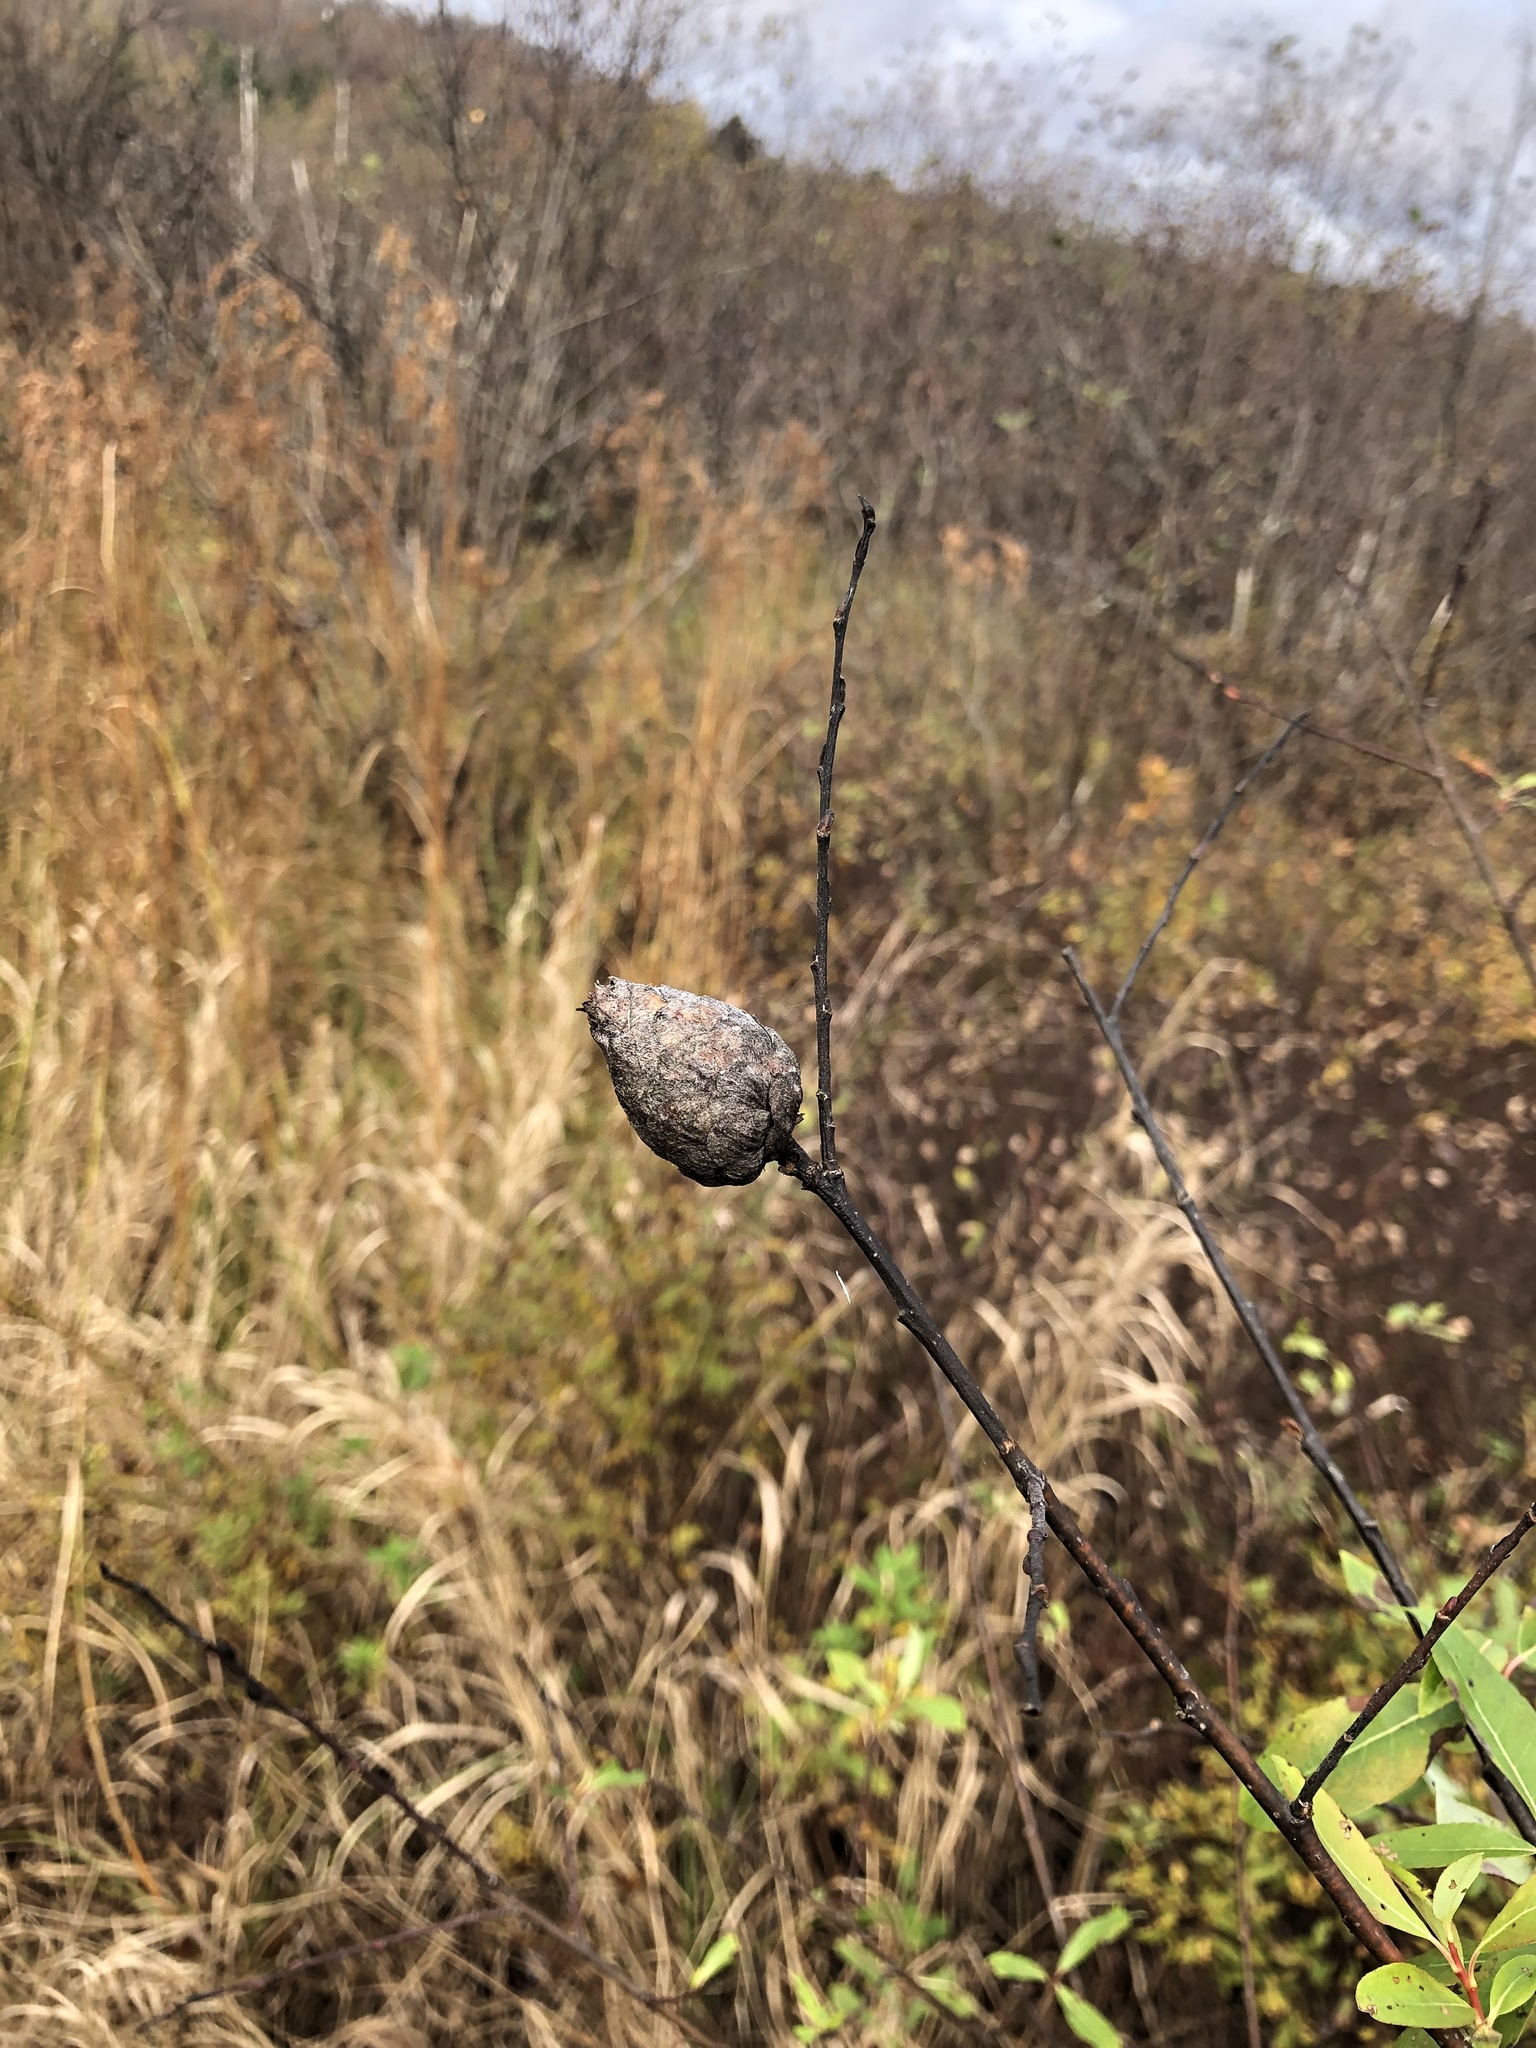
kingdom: Animalia
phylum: Arthropoda
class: Insecta
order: Diptera
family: Cecidomyiidae
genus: Rabdophaga
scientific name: Rabdophaga strobiloides
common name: Willow pinecone gall midge
